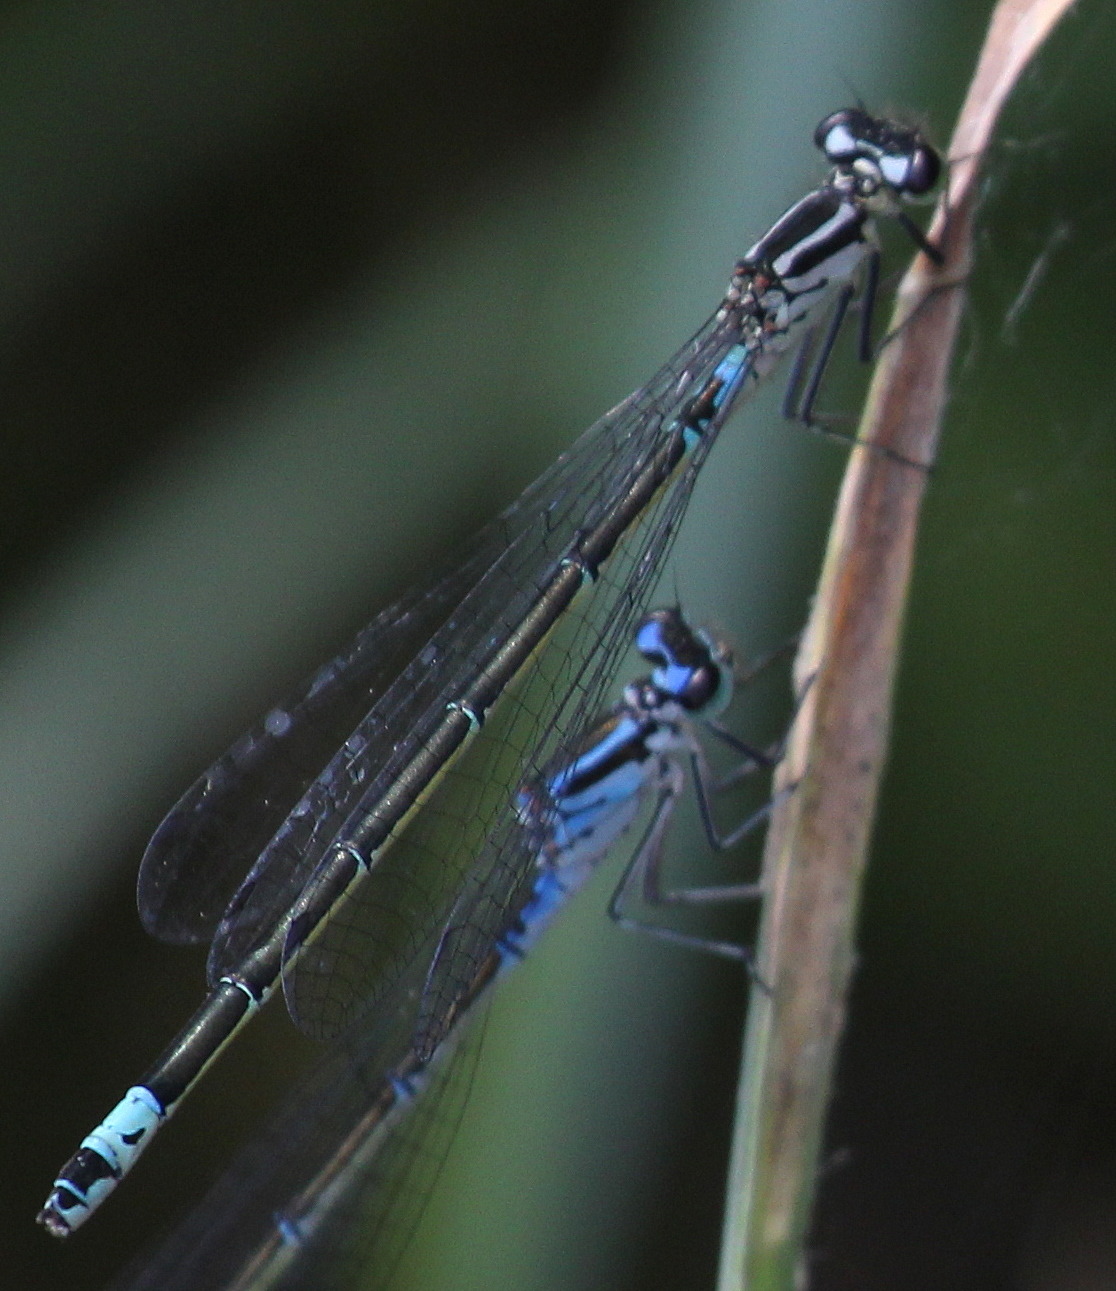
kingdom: Animalia
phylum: Arthropoda
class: Insecta
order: Odonata
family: Coenagrionidae
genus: Coenagrion
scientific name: Coenagrion pulchellum
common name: Variable bluet
